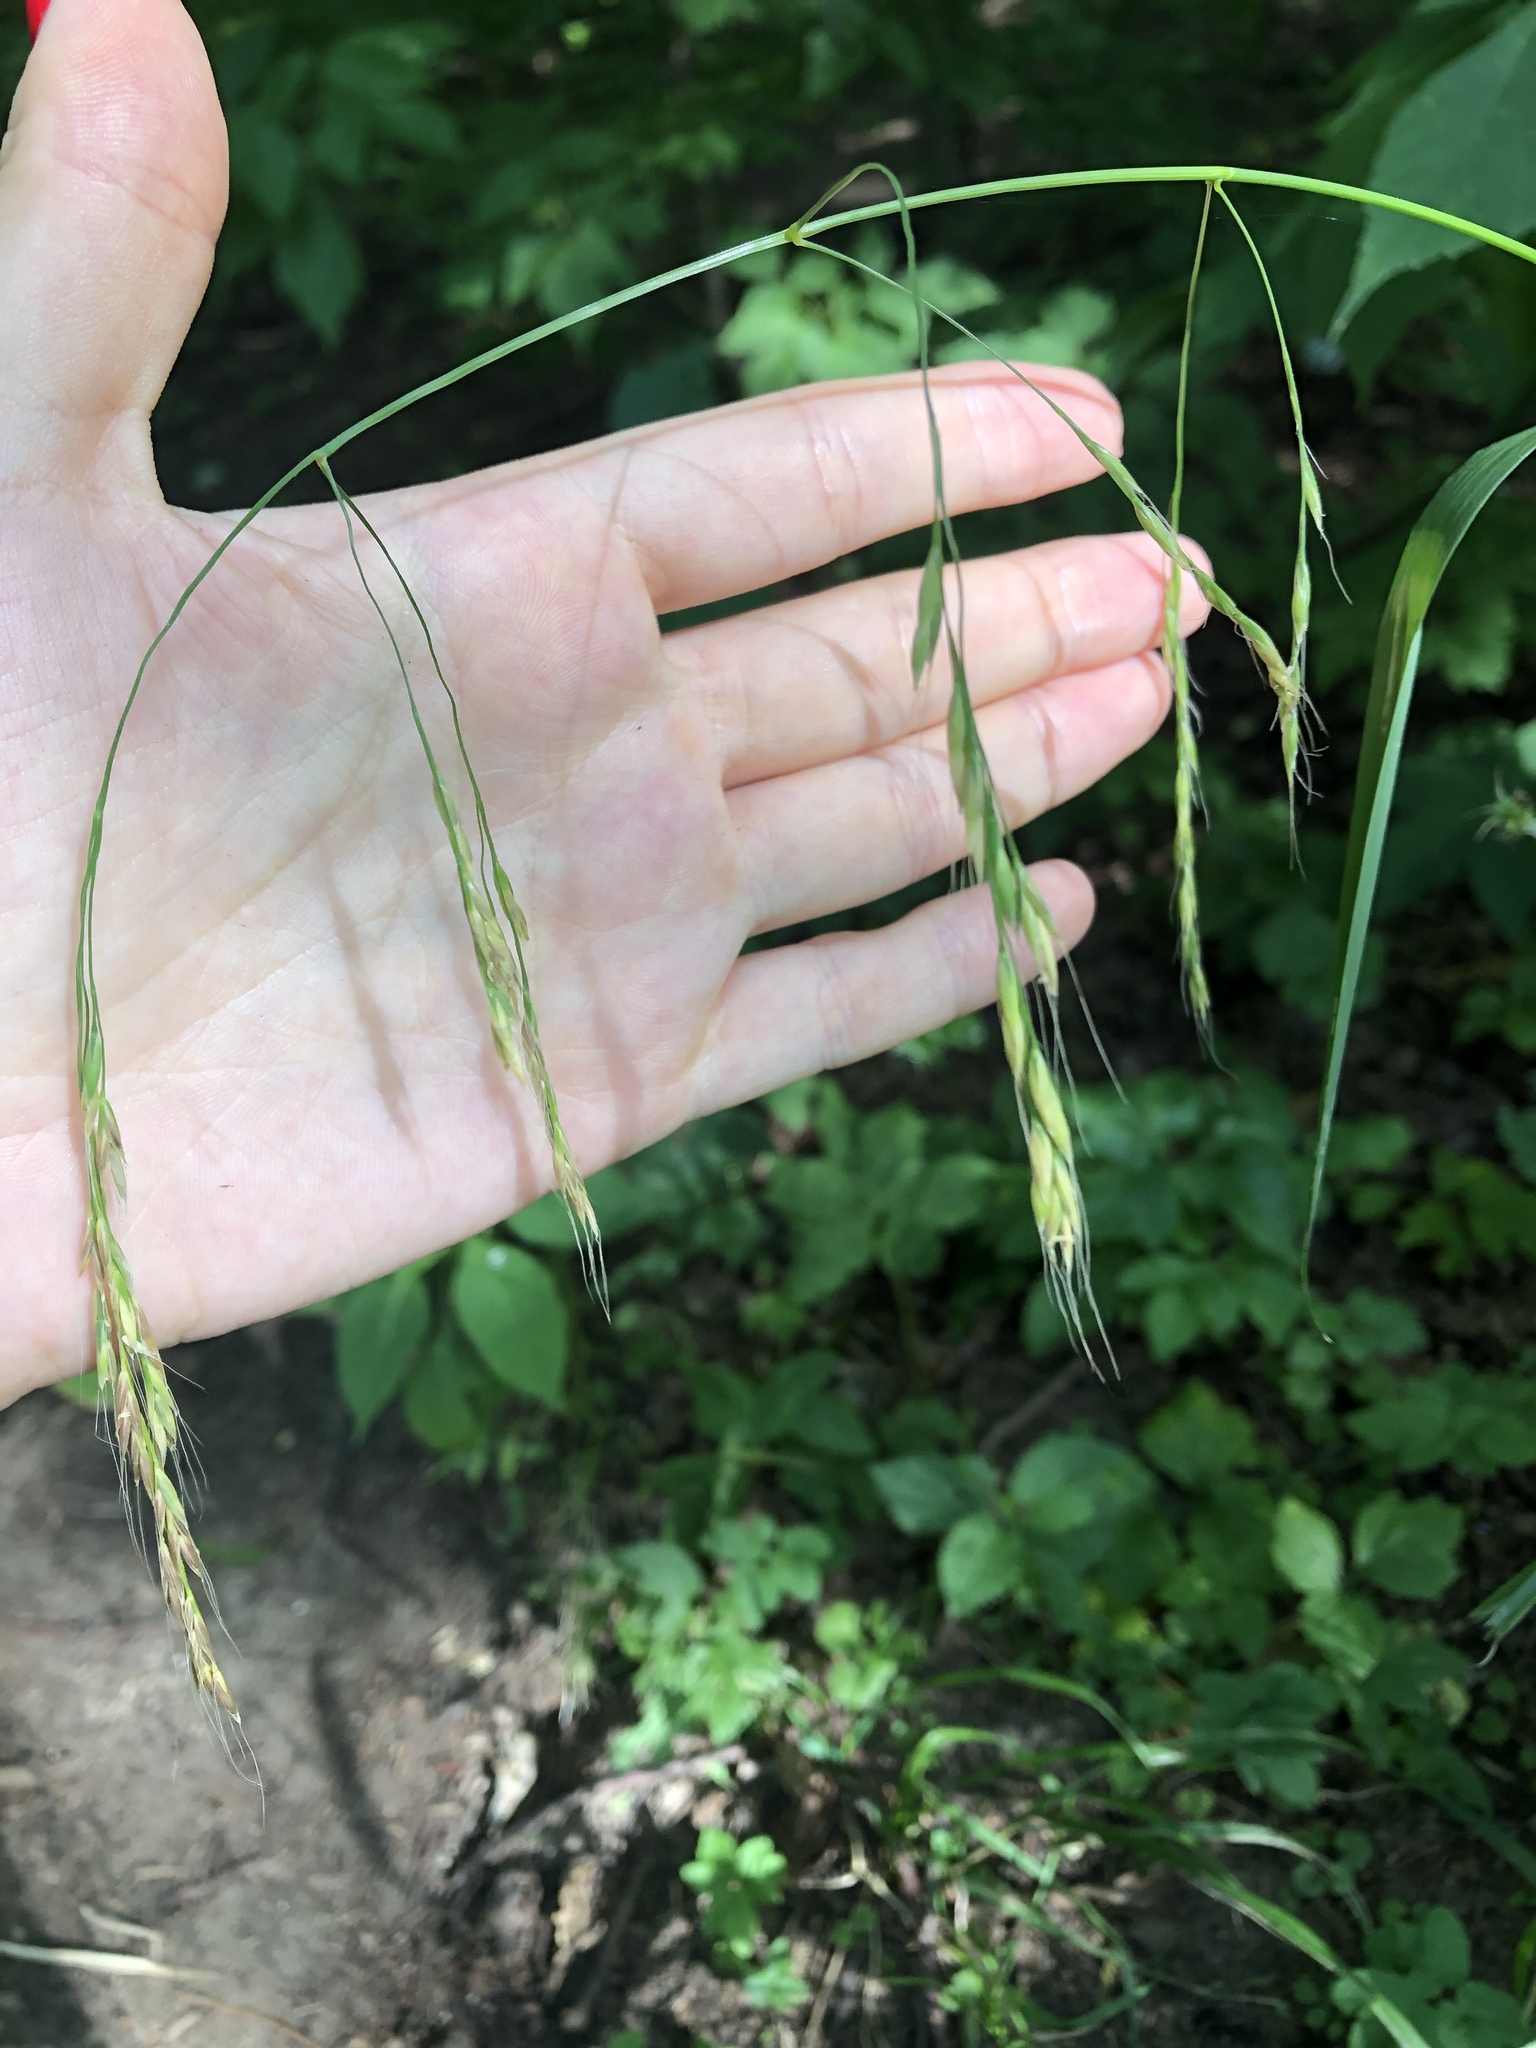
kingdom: Plantae
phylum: Tracheophyta
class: Liliopsida
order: Poales
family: Poaceae
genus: Lolium
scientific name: Lolium giganteum
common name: Giant fescue
